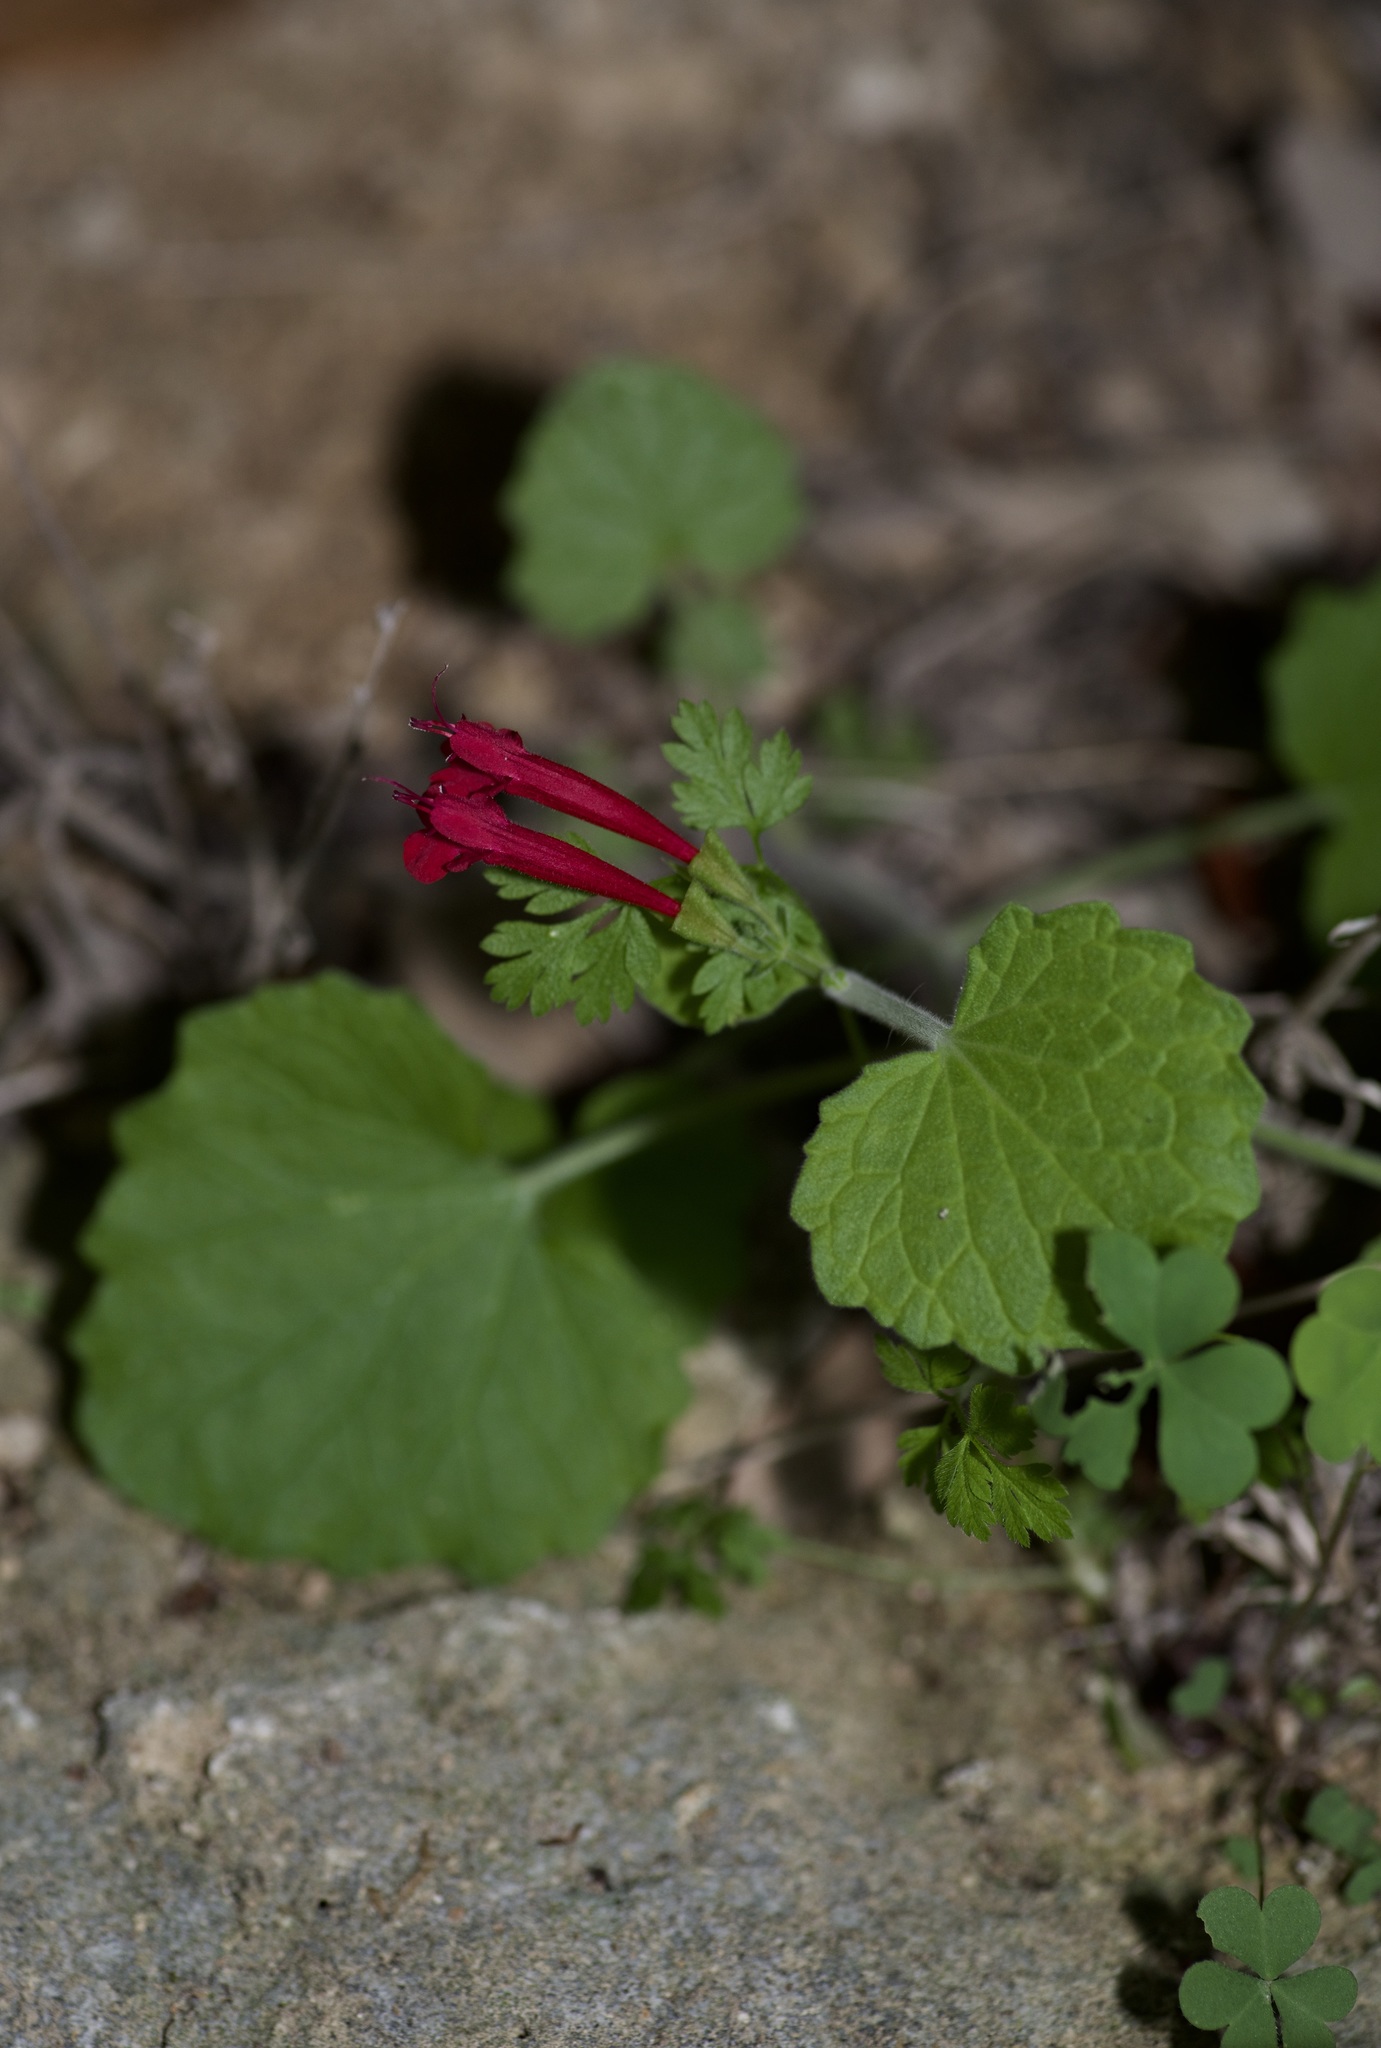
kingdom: Plantae
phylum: Tracheophyta
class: Magnoliopsida
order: Lamiales
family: Lamiaceae
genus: Salvia
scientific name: Salvia roemeriana
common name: Cedar sage
